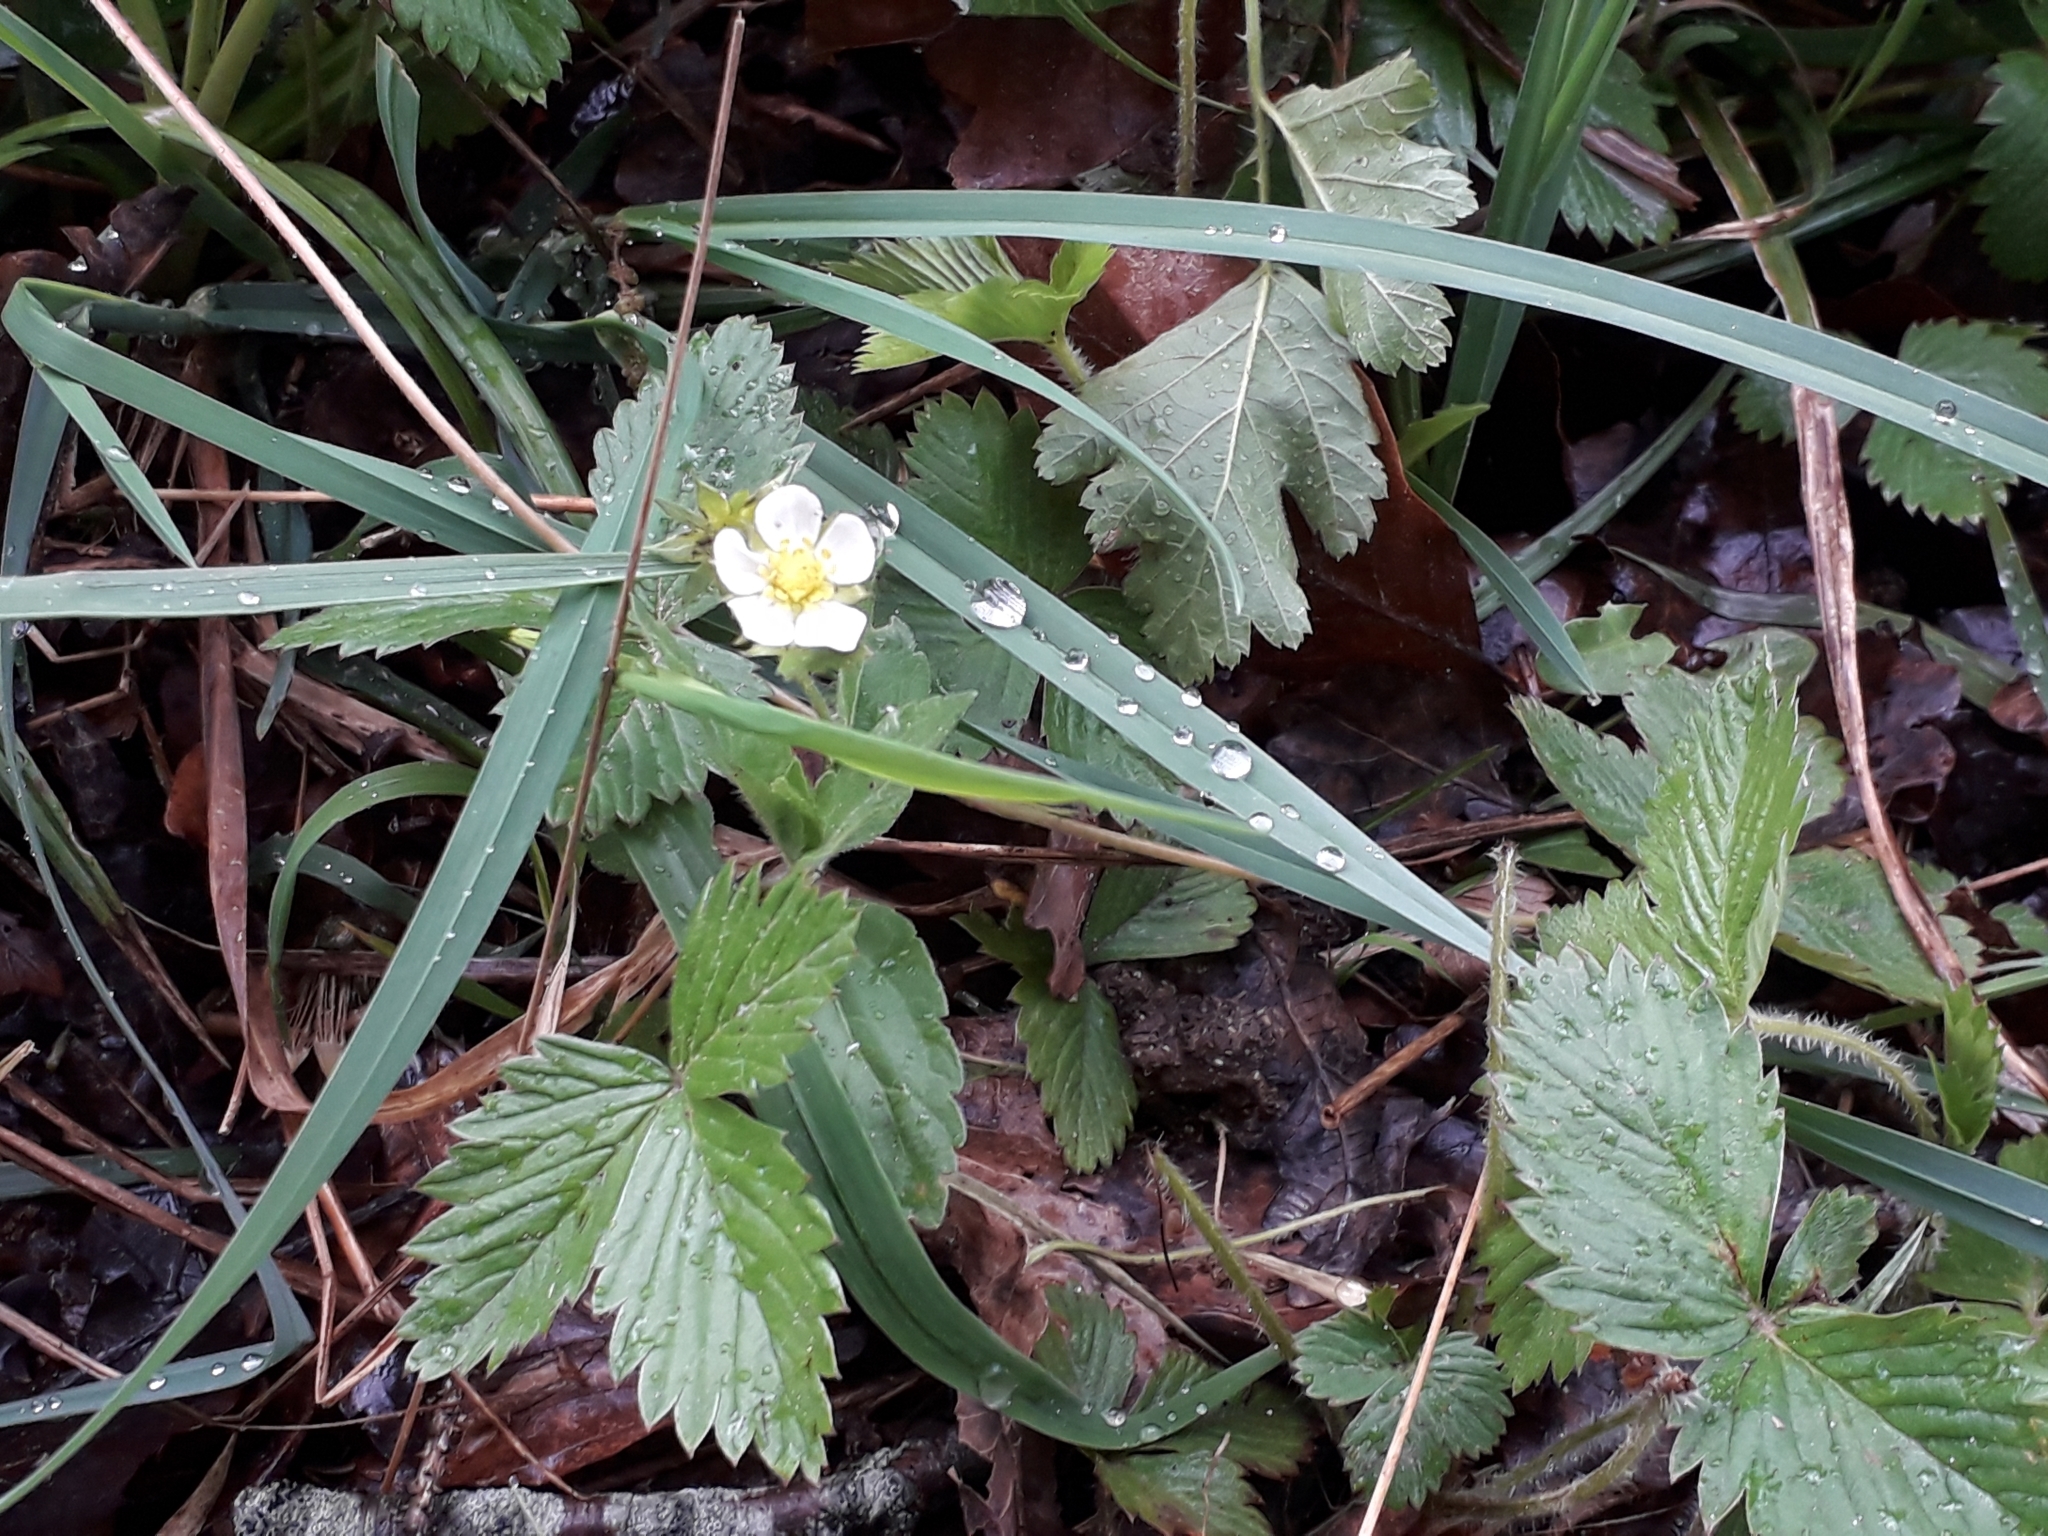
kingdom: Plantae
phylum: Tracheophyta
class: Magnoliopsida
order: Rosales
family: Rosaceae
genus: Fragaria
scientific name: Fragaria vesca
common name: Wild strawberry
